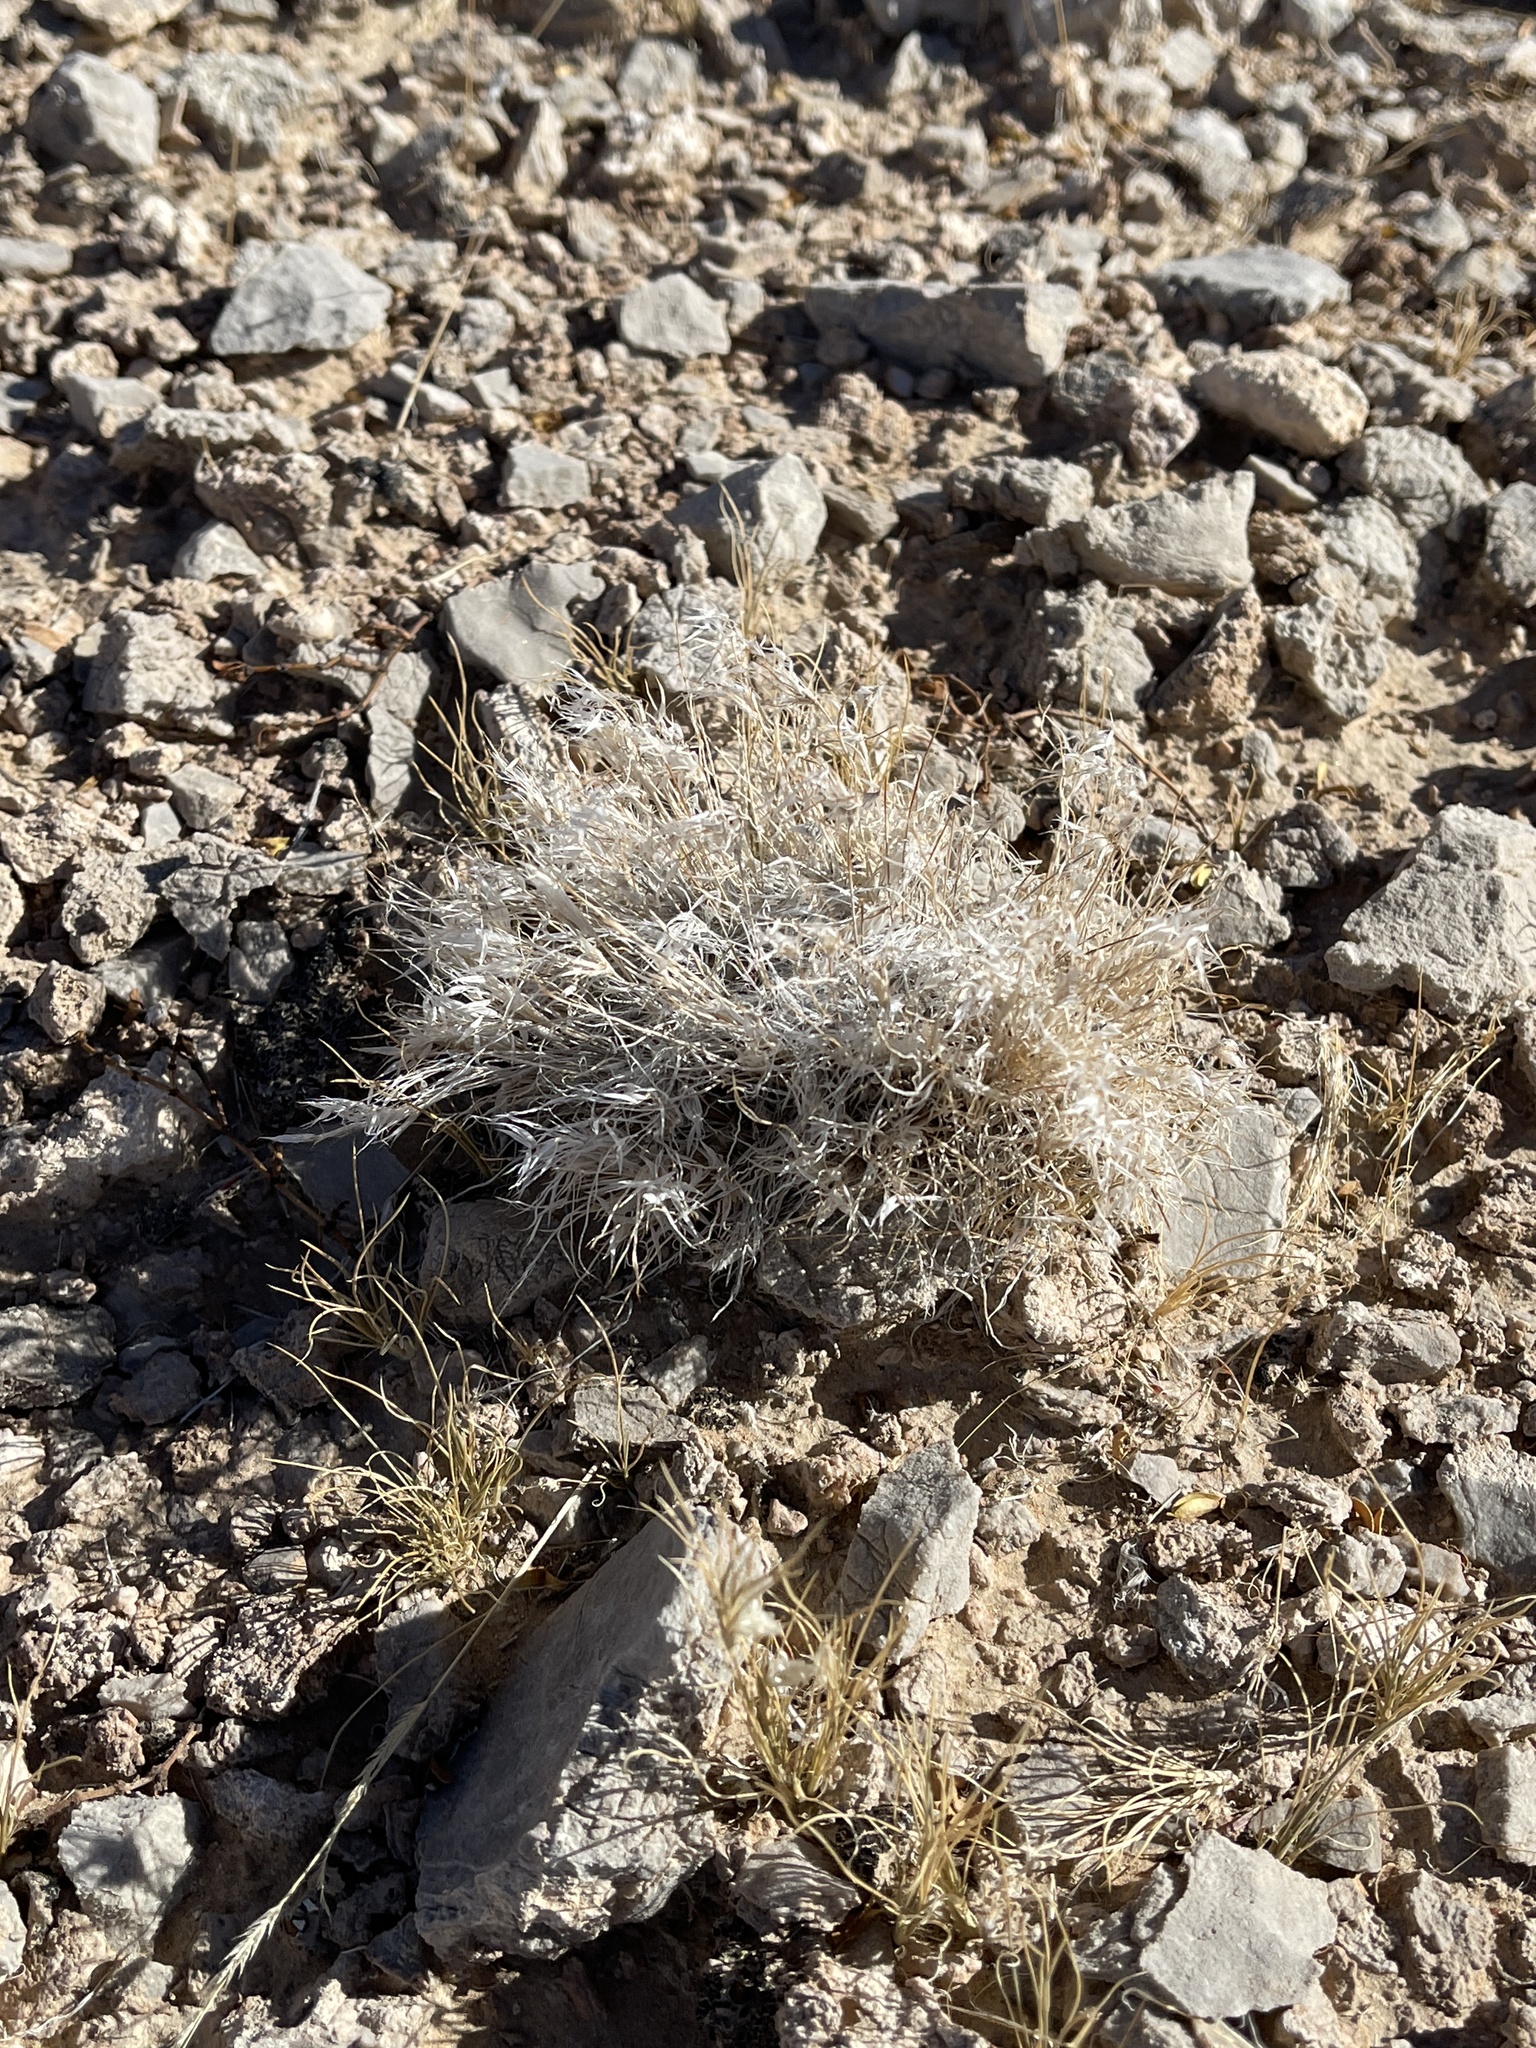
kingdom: Plantae
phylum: Tracheophyta
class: Liliopsida
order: Poales
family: Poaceae
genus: Dasyochloa
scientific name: Dasyochloa pulchella
